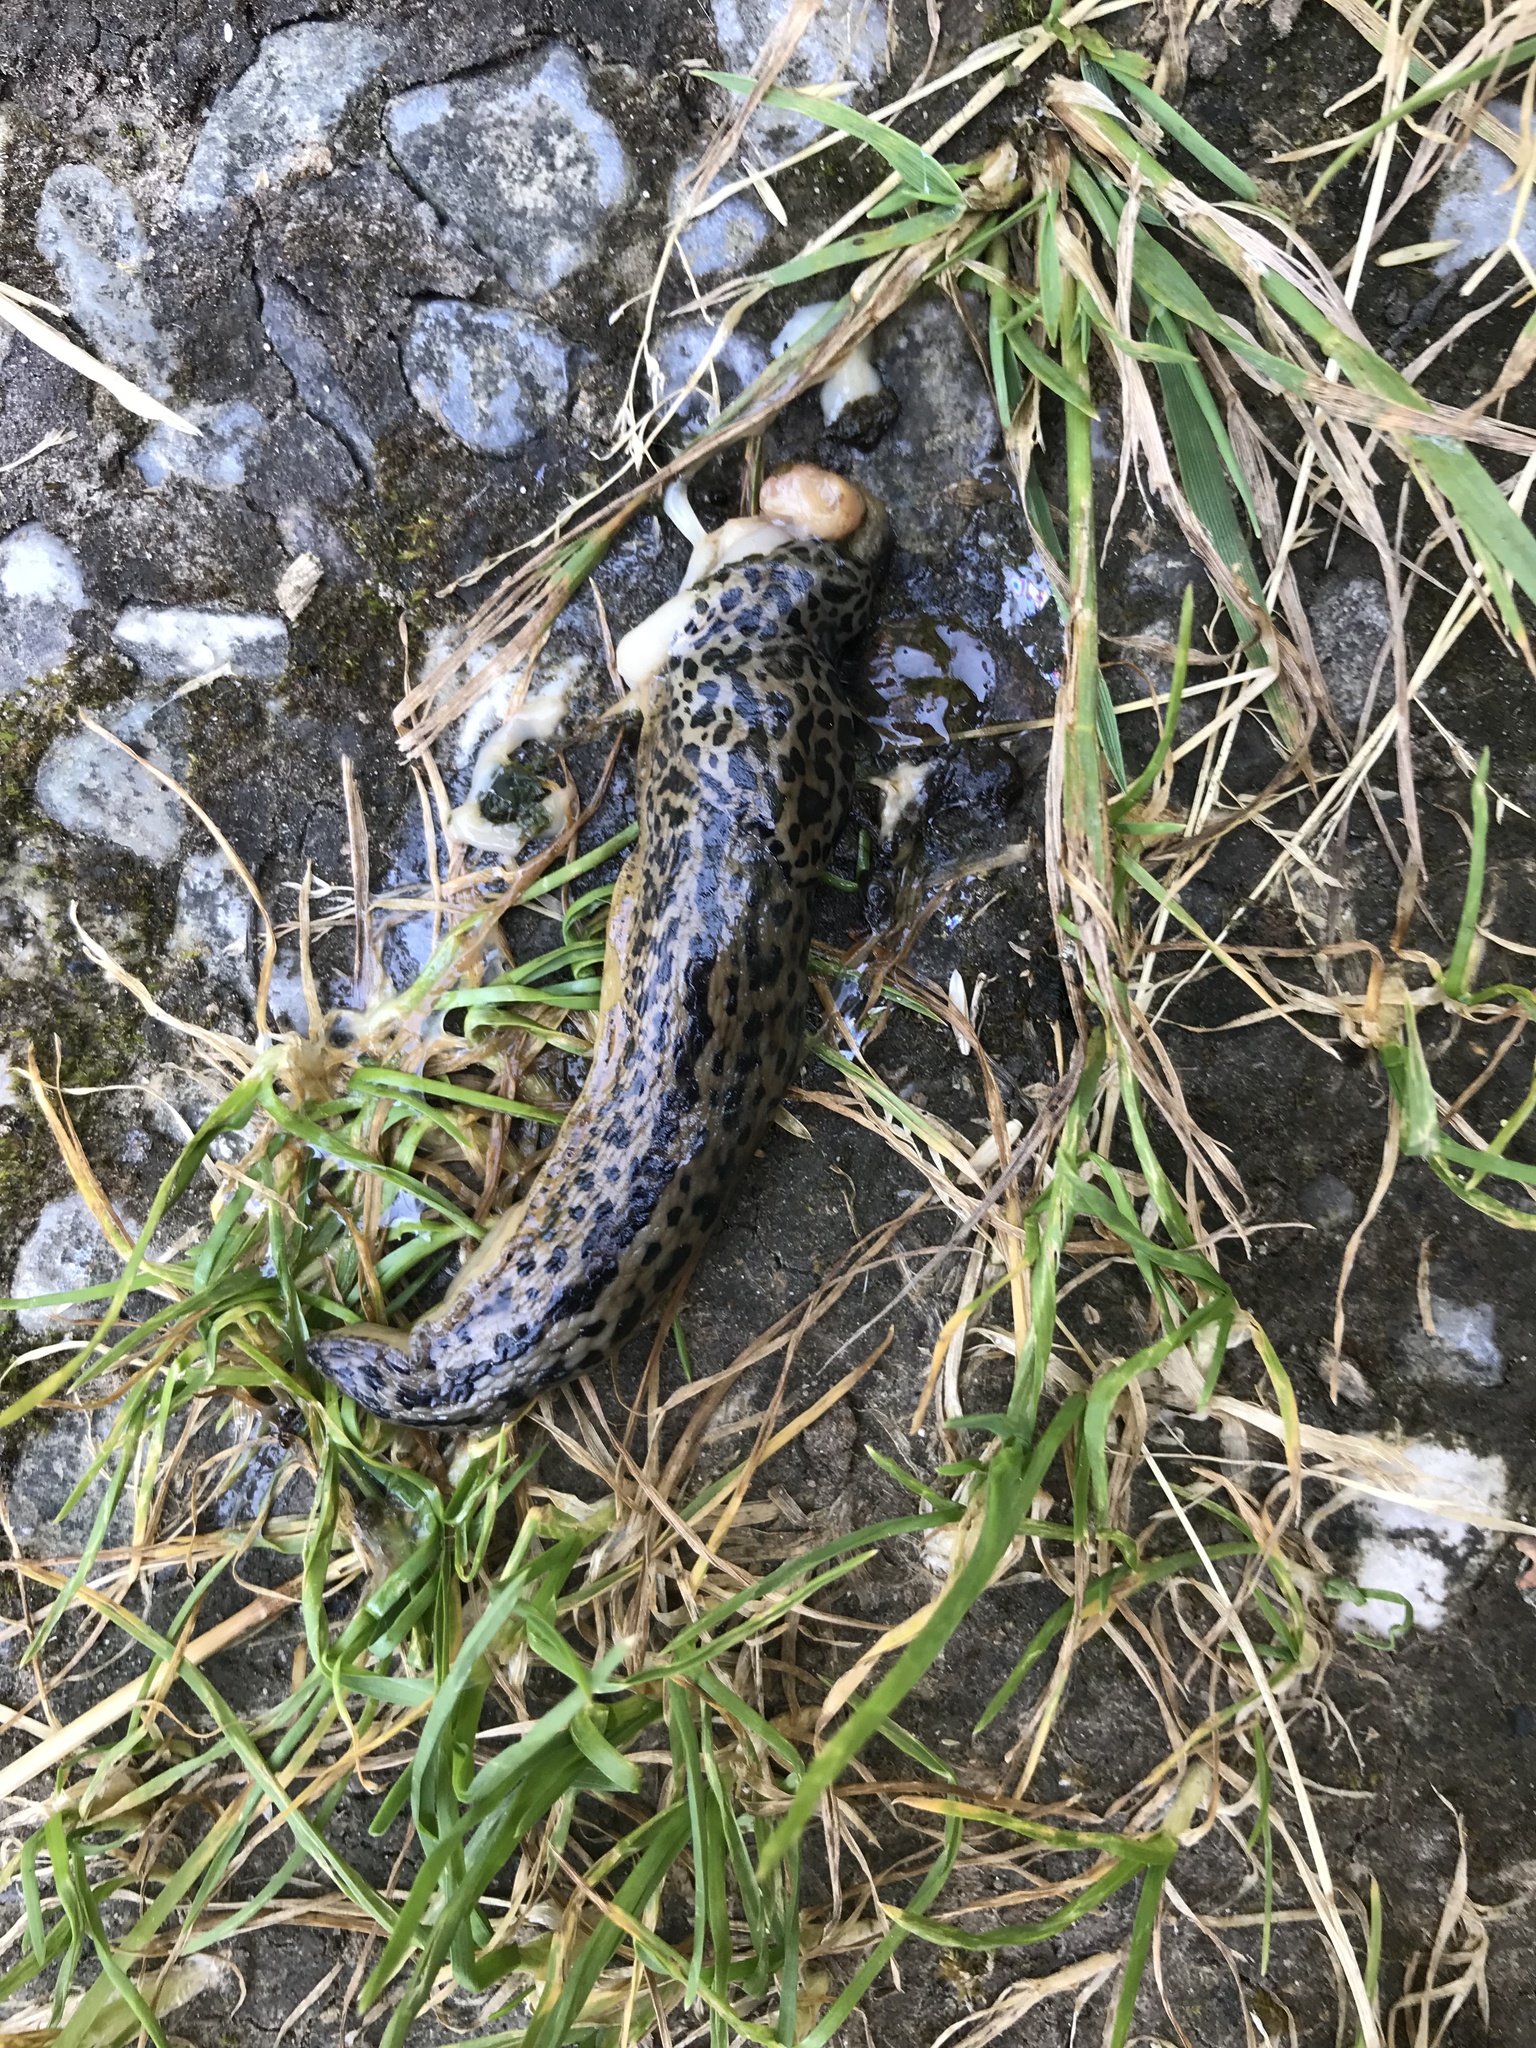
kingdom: Animalia
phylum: Mollusca
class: Gastropoda
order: Stylommatophora
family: Limacidae
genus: Limax
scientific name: Limax maximus
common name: Great grey slug
